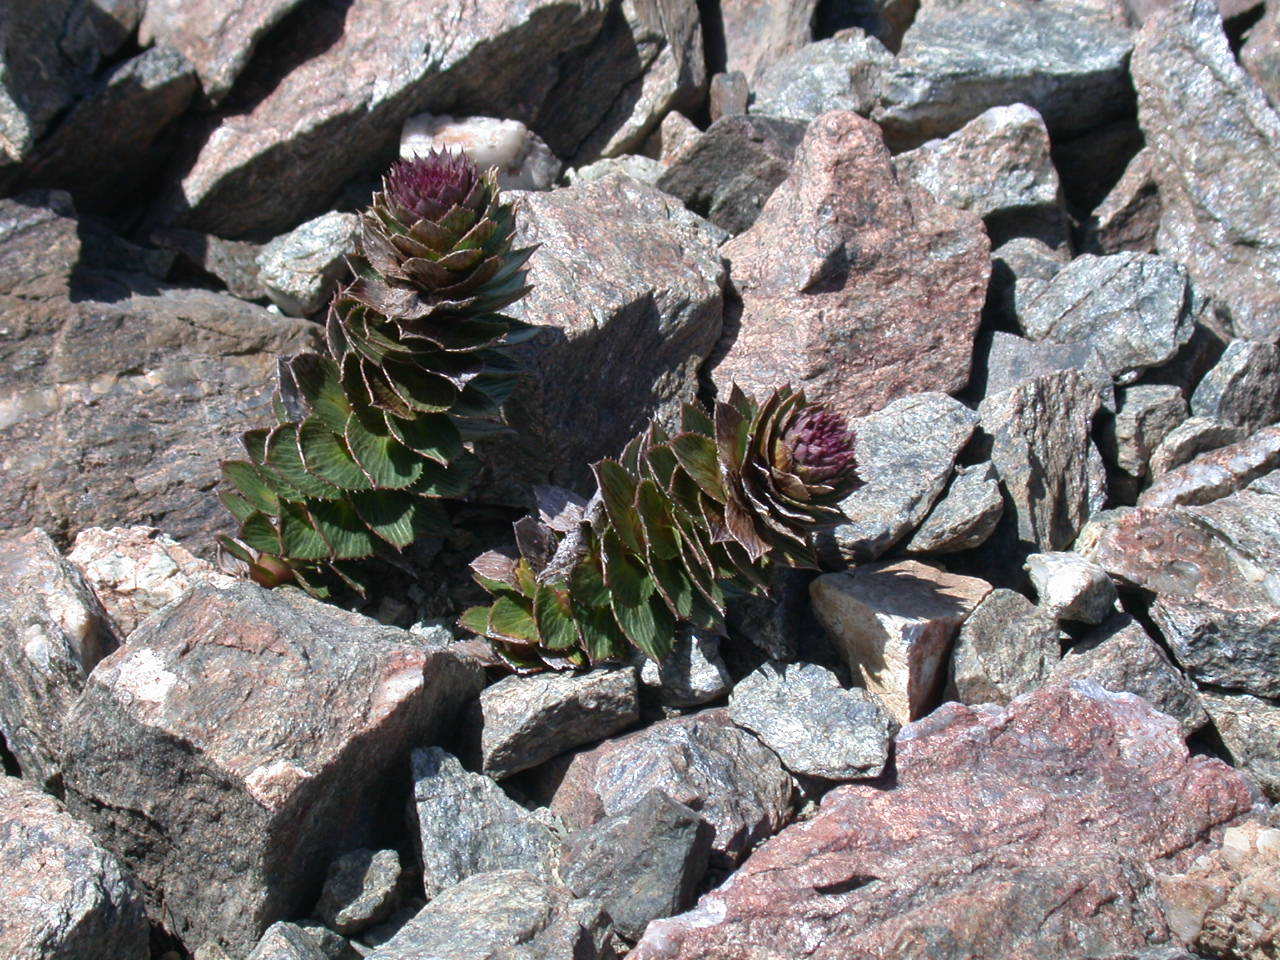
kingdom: Plantae
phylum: Tracheophyta
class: Magnoliopsida
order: Asterales
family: Asteraceae
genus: Nassauvia
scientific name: Nassauvia pulcherrima
